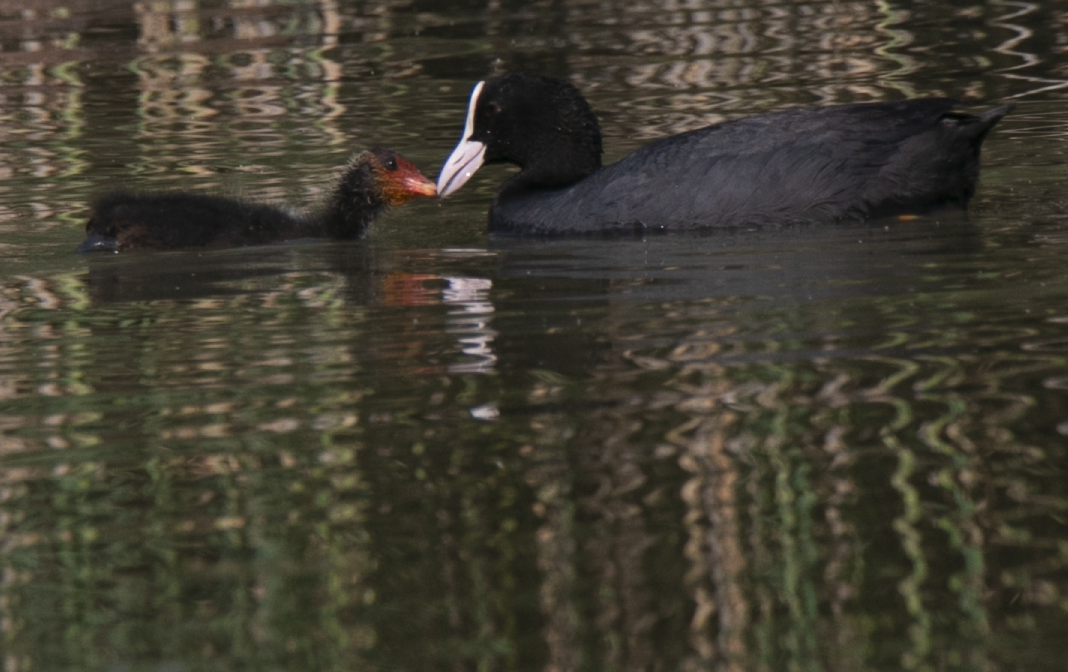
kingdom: Animalia
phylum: Chordata
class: Aves
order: Gruiformes
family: Rallidae
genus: Fulica
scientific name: Fulica atra
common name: Eurasian coot
